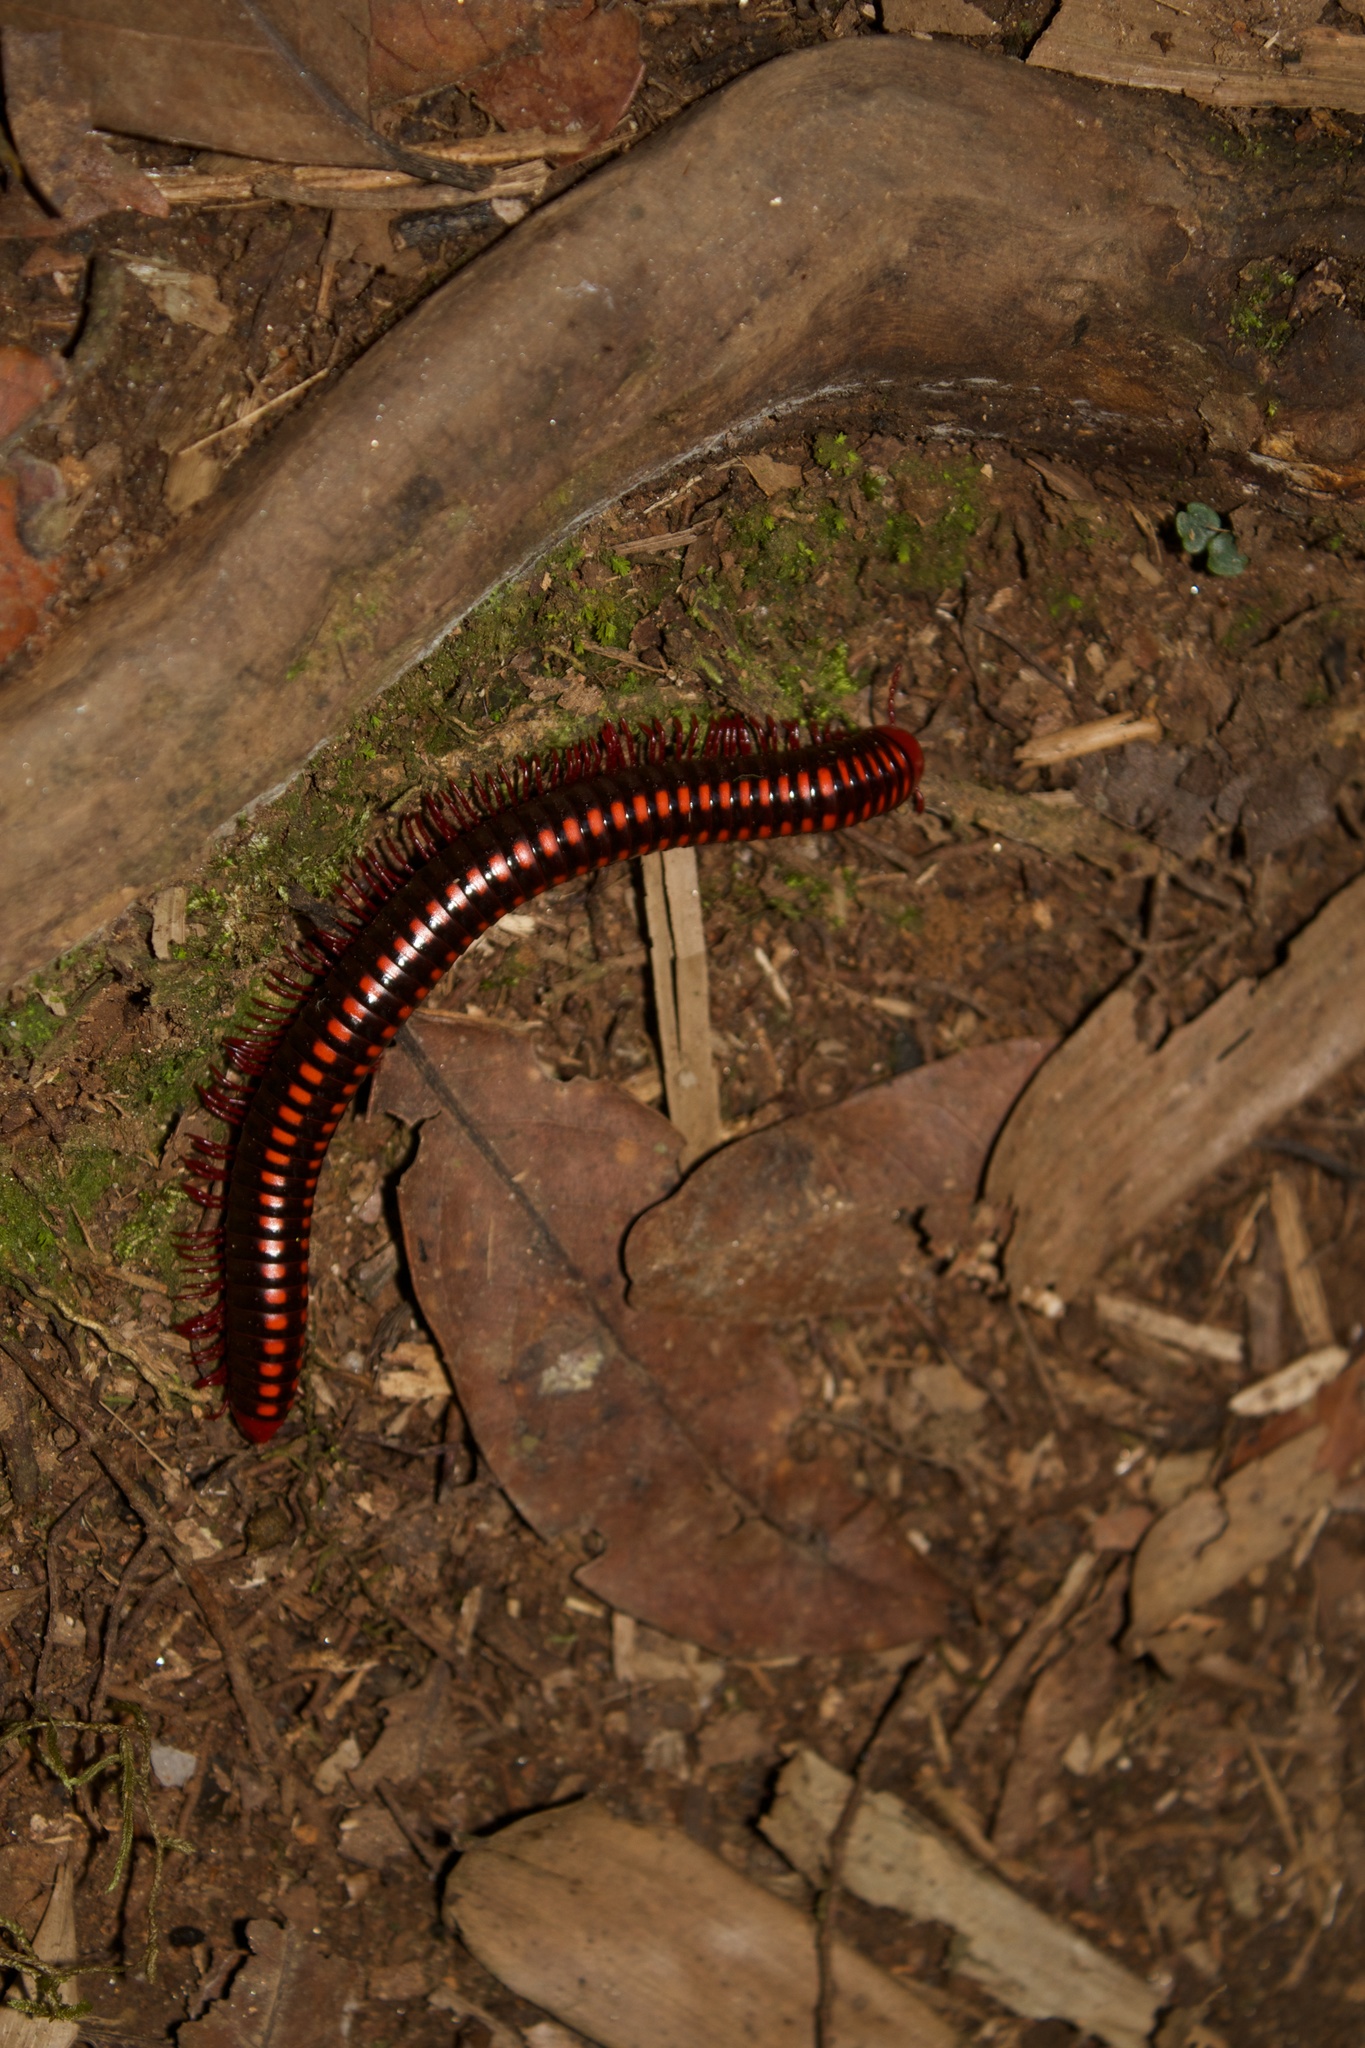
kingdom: Animalia
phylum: Arthropoda
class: Diplopoda
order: Spirobolida
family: Pachybolidae
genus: Aphistogoniulus
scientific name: Aphistogoniulus cowani
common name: Andringitra fire-millipede
